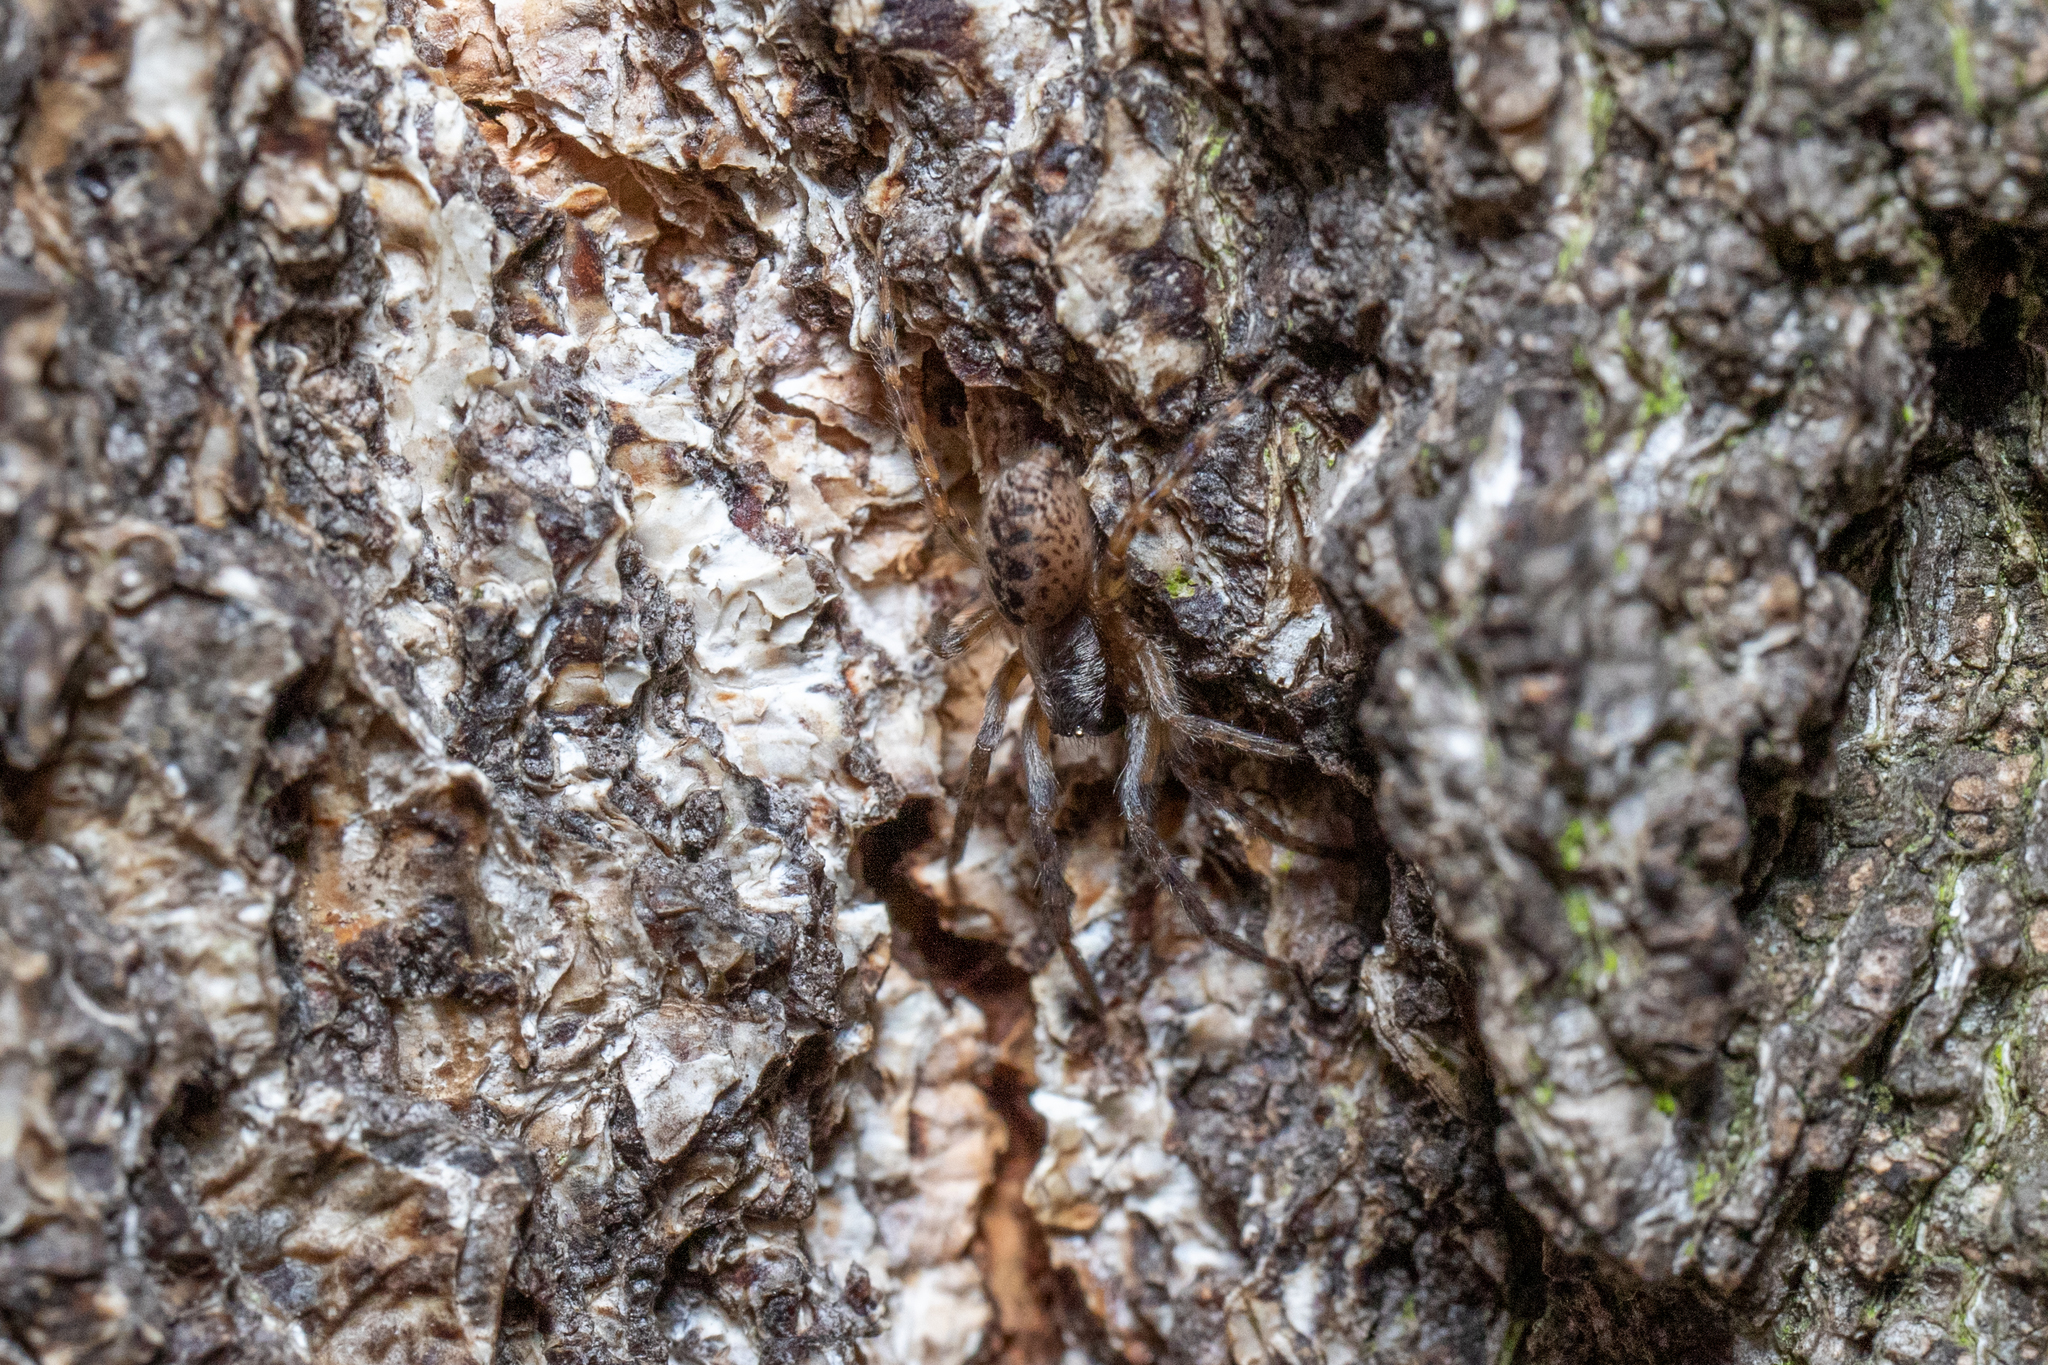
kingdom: Animalia
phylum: Arthropoda
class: Arachnida
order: Araneae
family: Segestriidae
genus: Segestria
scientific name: Segestria bavarica
